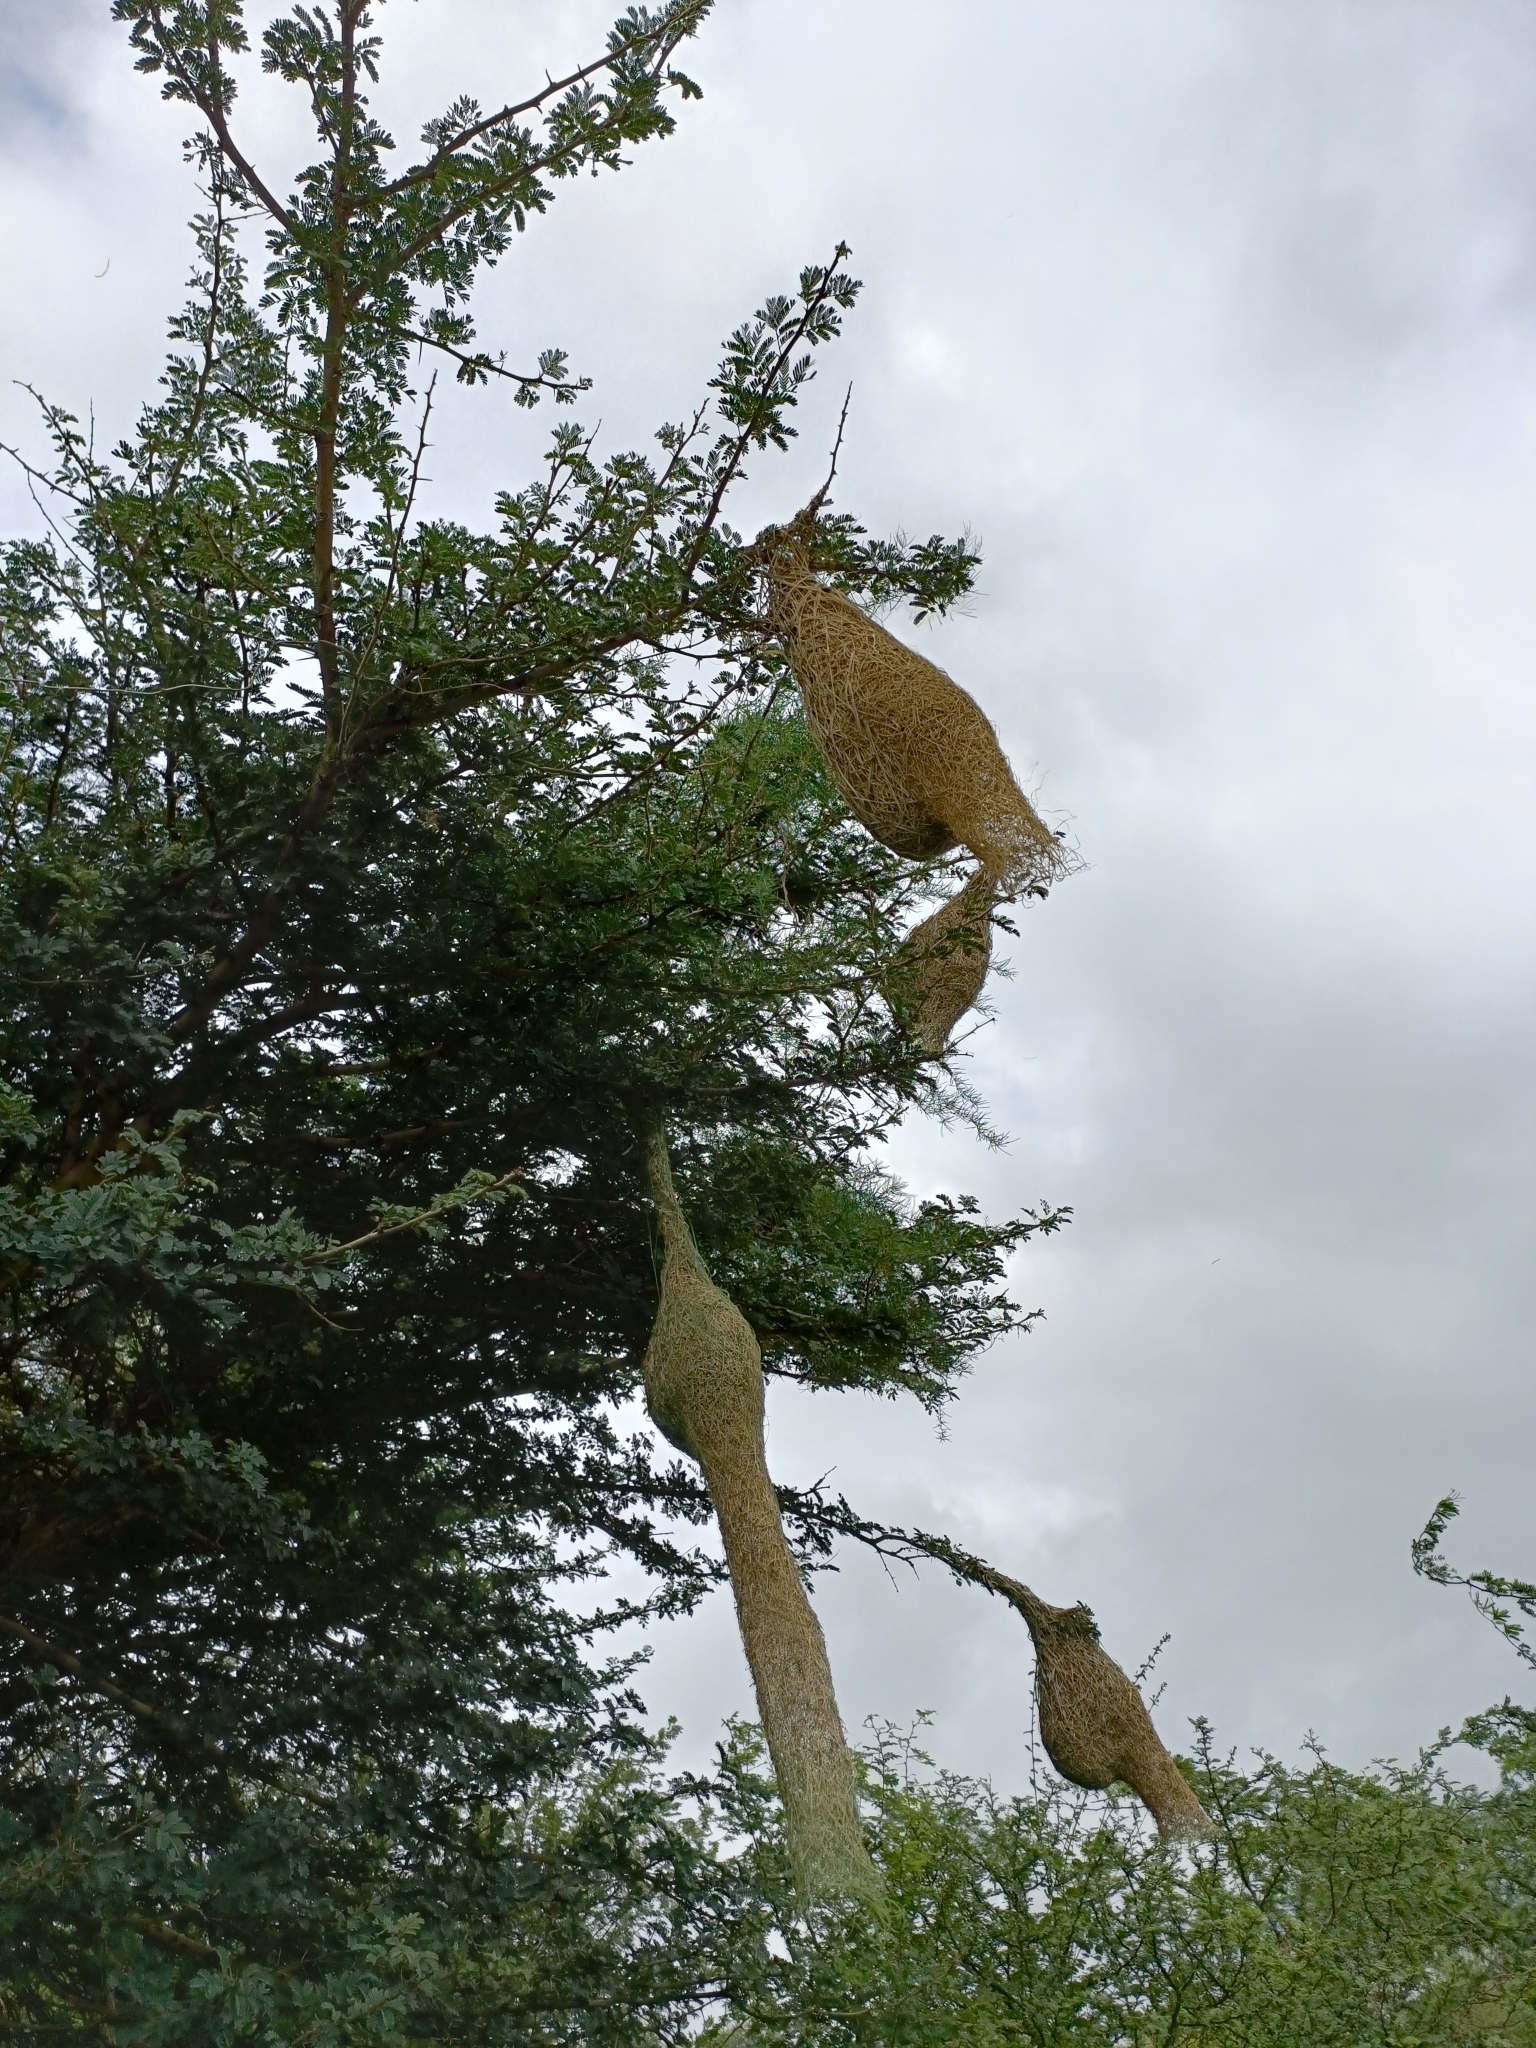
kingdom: Animalia
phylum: Chordata
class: Aves
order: Passeriformes
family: Ploceidae
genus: Ploceus
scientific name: Ploceus philippinus
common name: Baya weaver
